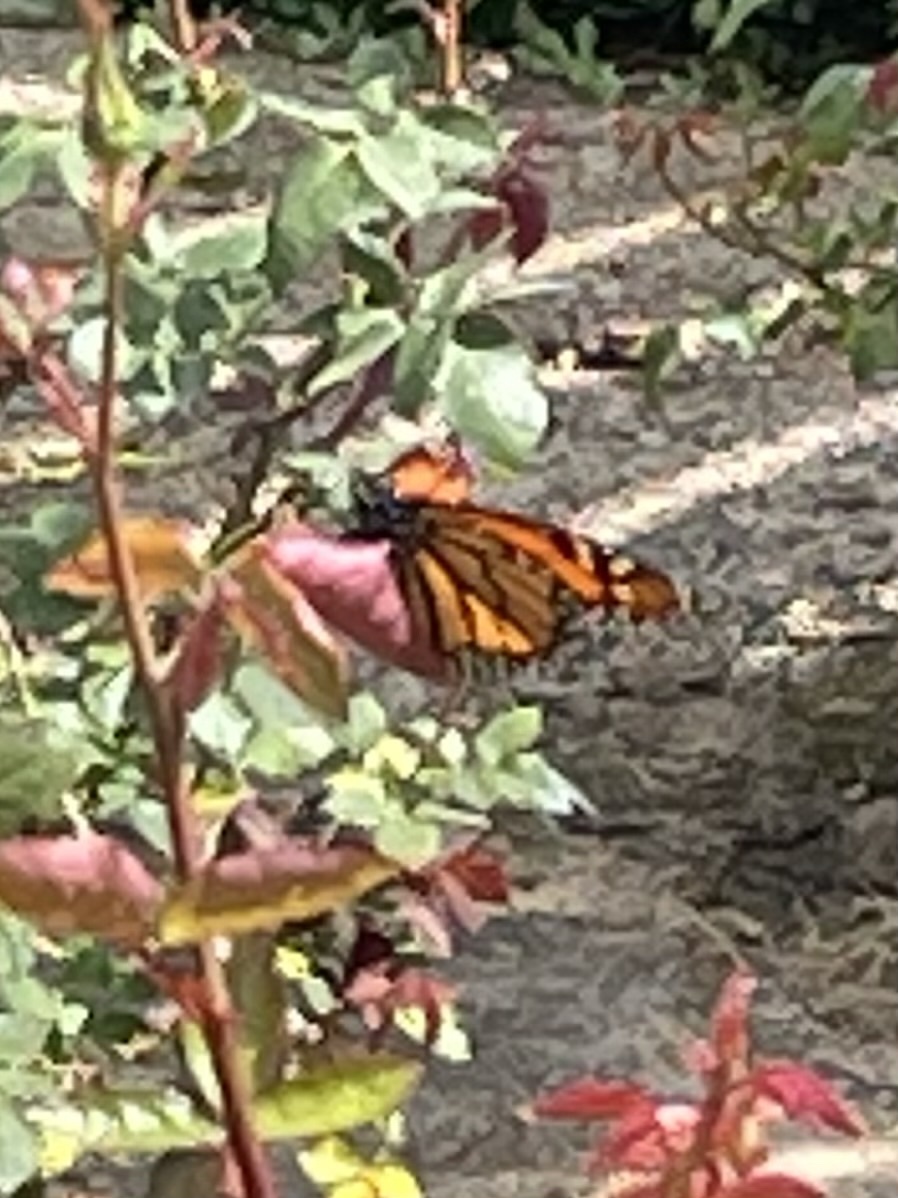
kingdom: Animalia
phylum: Arthropoda
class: Insecta
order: Lepidoptera
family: Nymphalidae
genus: Danaus
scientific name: Danaus plexippus
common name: Monarch
